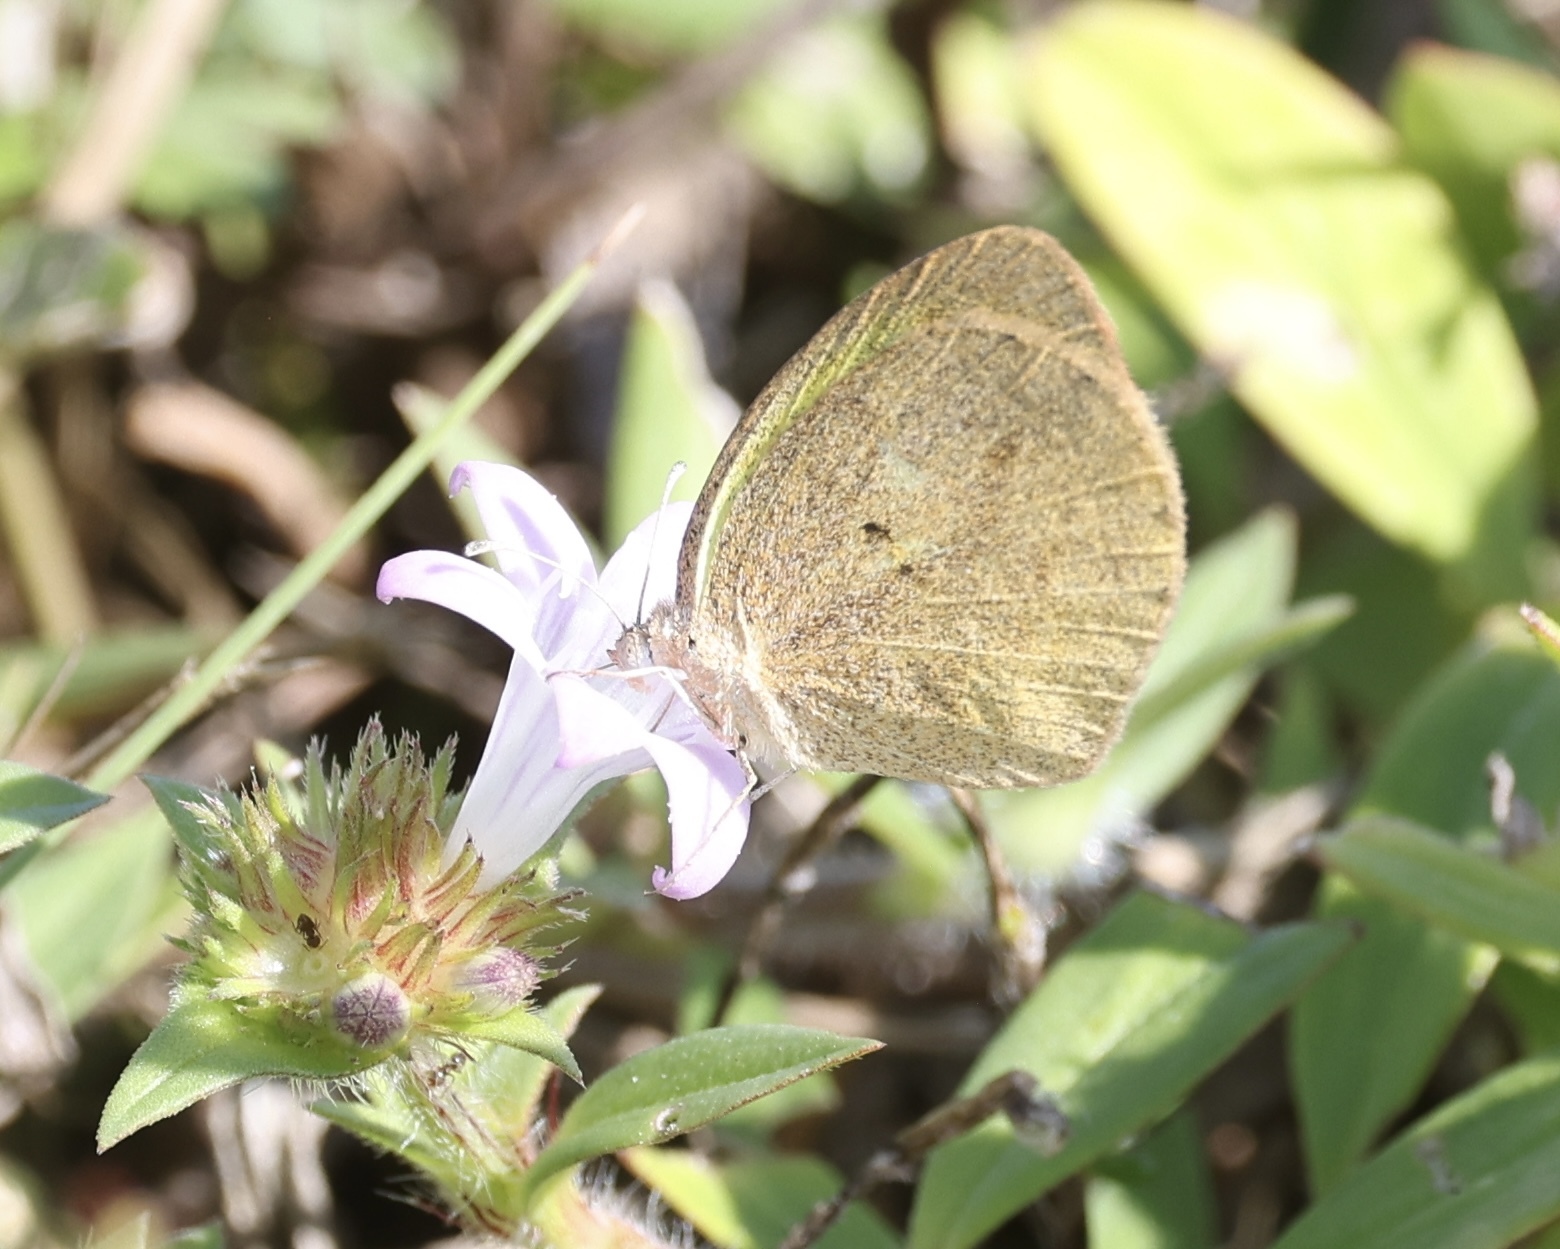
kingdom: Animalia
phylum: Arthropoda
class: Insecta
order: Lepidoptera
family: Pieridae
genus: Eurema
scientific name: Eurema daira
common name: Barred sulphur
